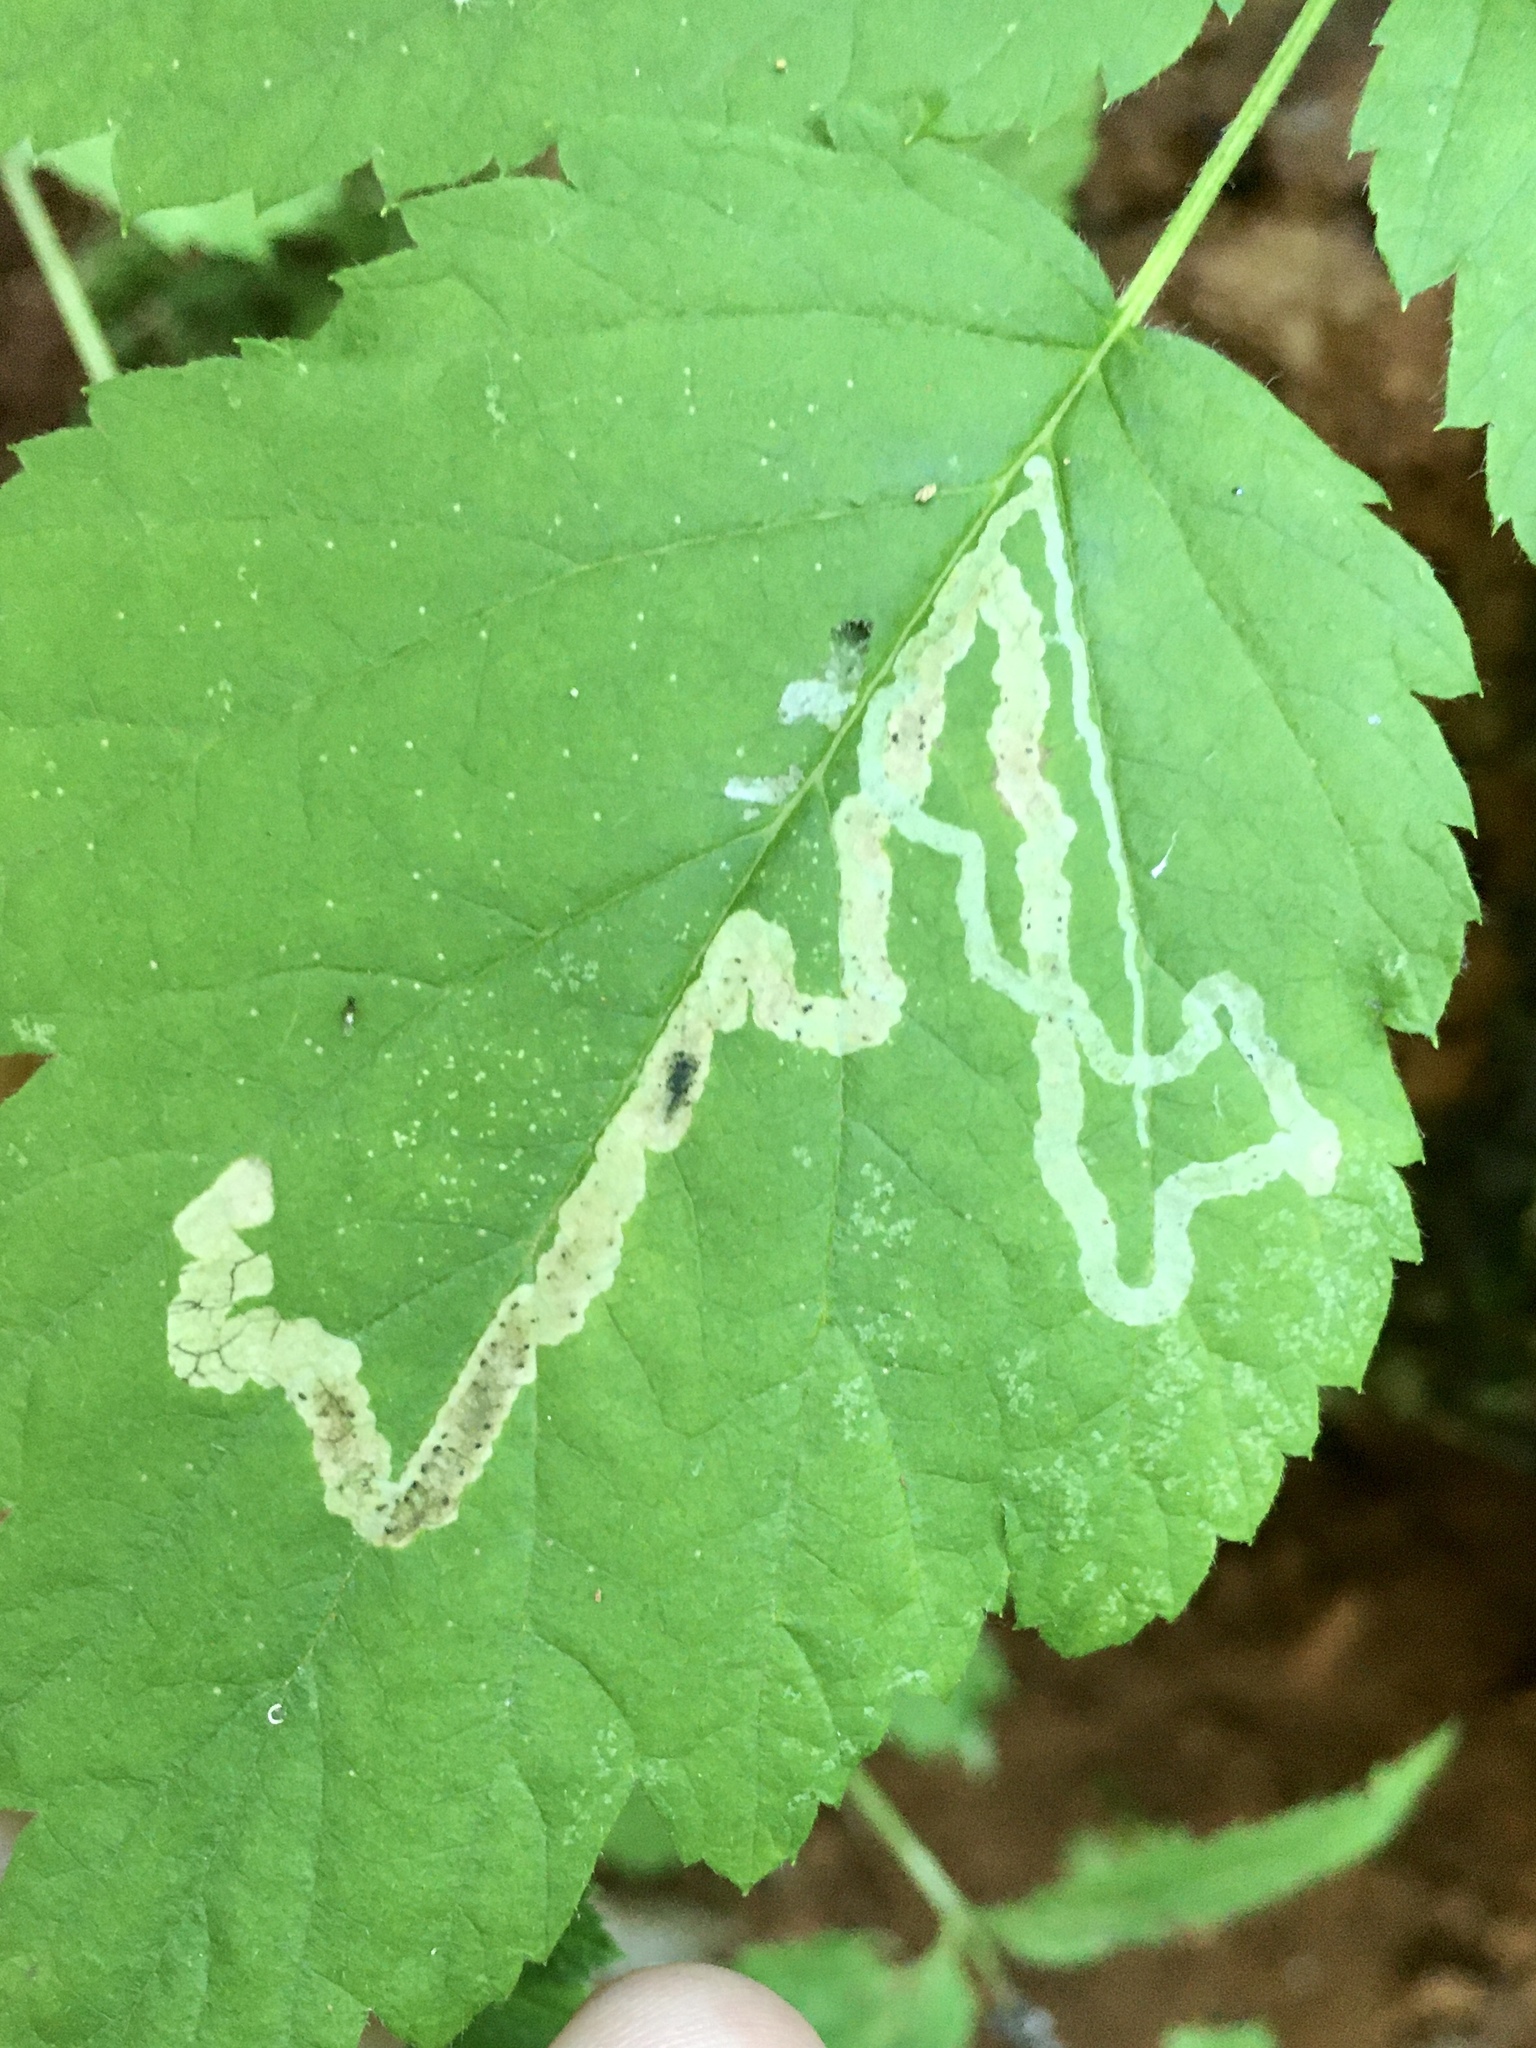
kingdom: Animalia
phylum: Arthropoda
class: Insecta
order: Diptera
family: Agromyzidae
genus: Agromyza
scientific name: Agromyza vockerothi
